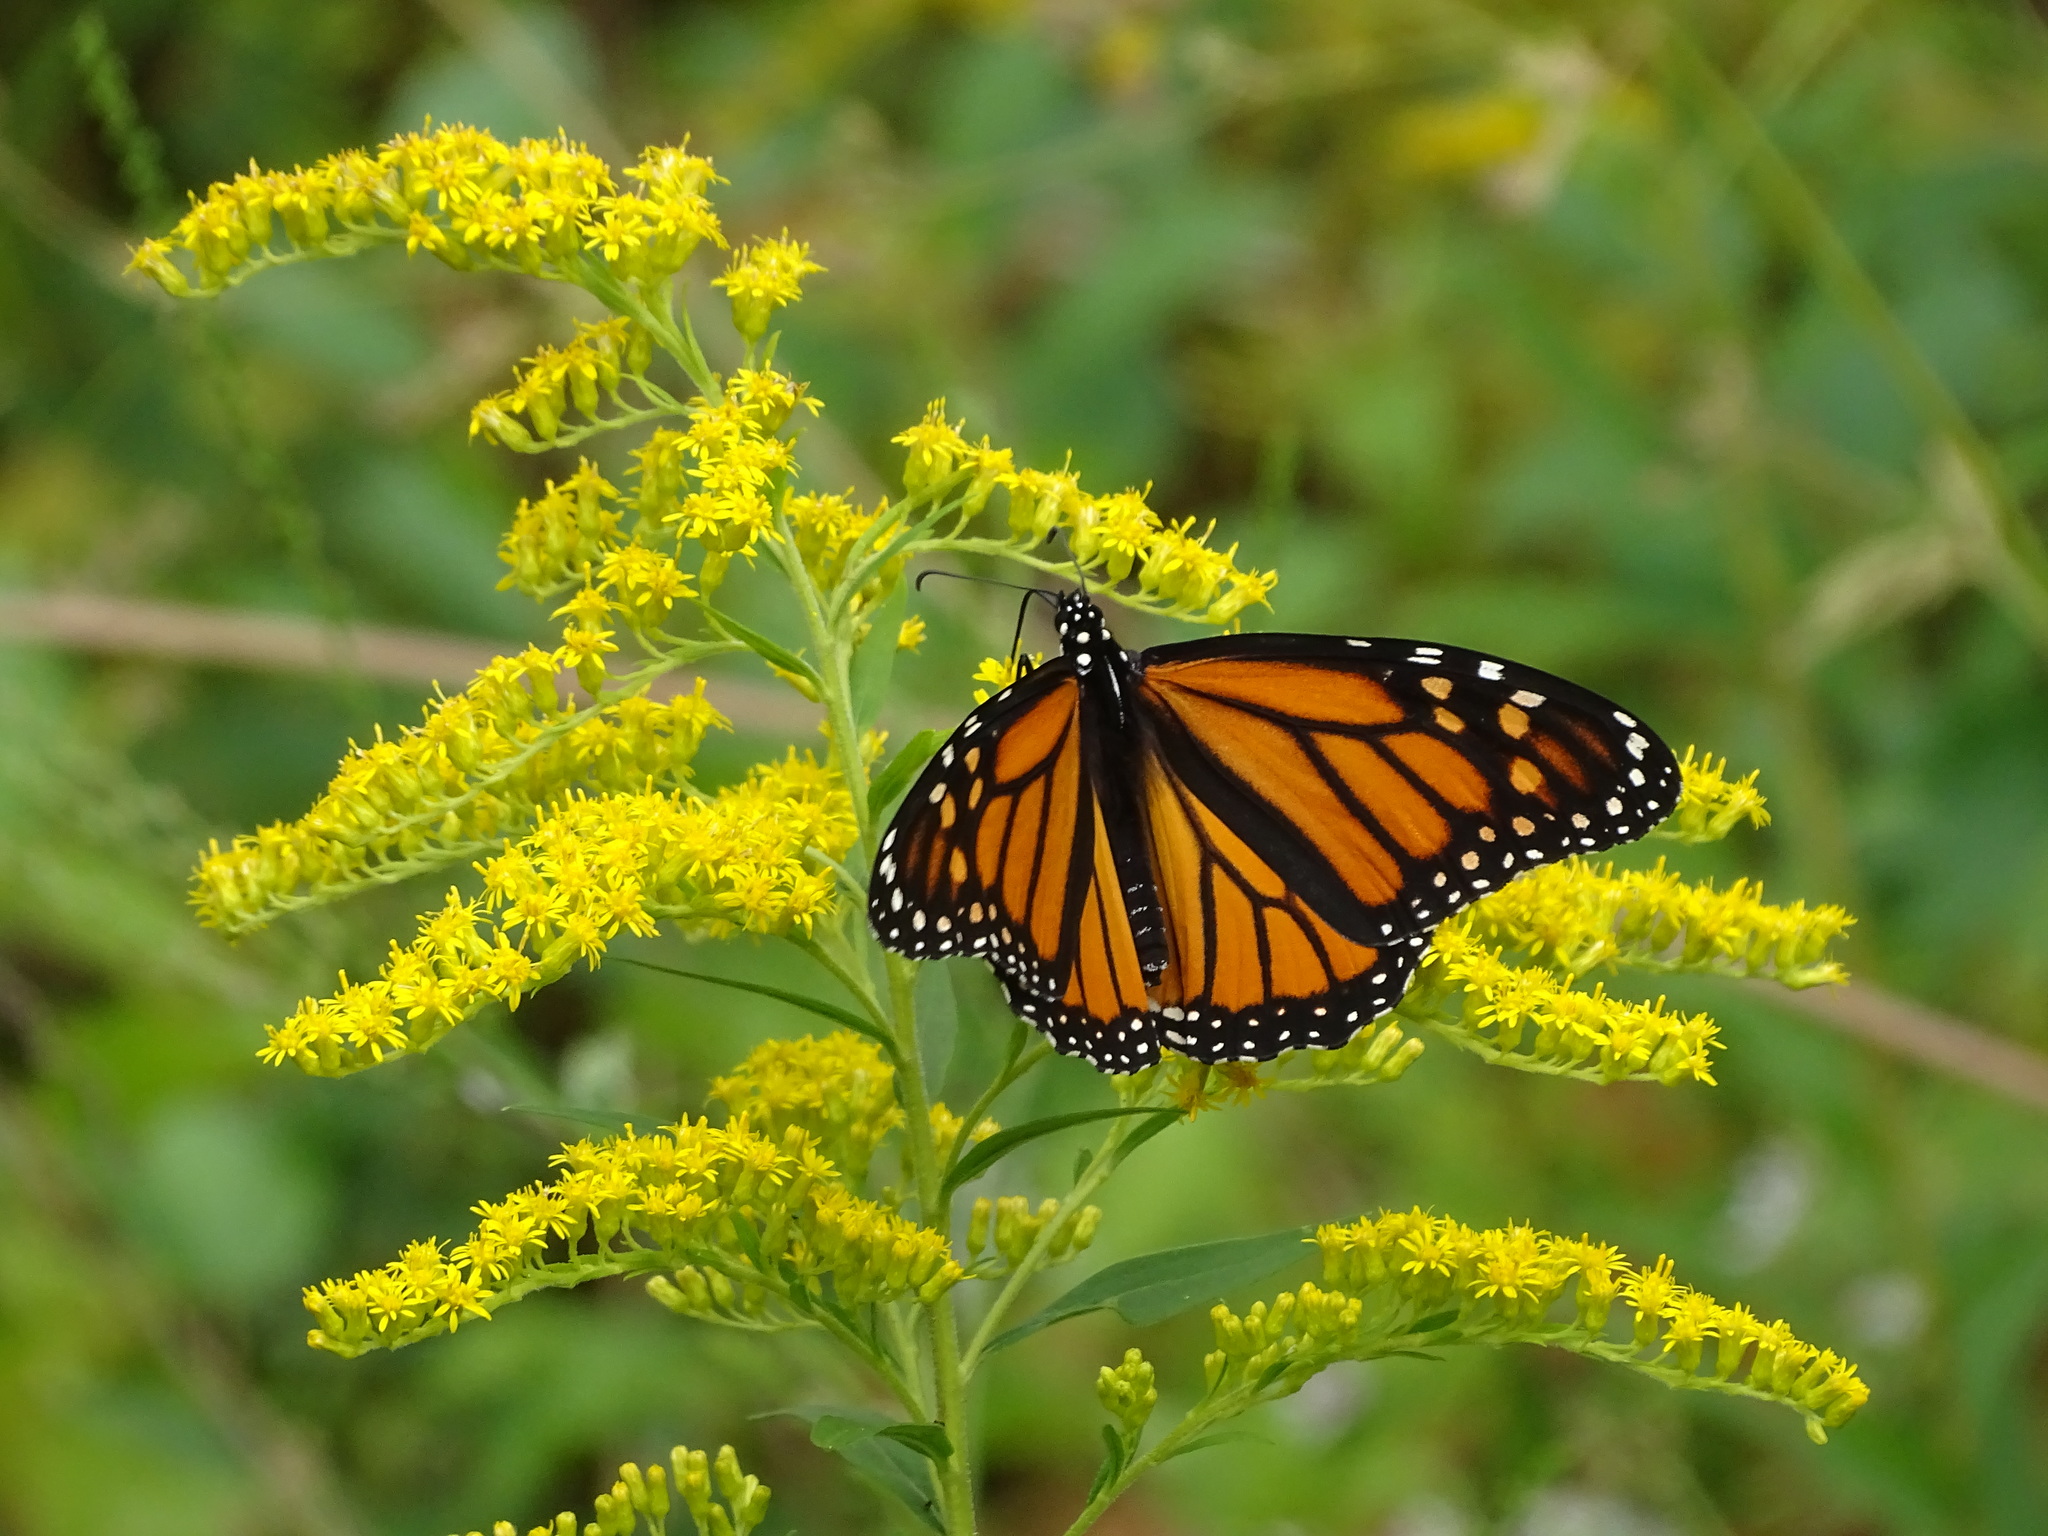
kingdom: Animalia
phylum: Arthropoda
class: Insecta
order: Lepidoptera
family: Nymphalidae
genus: Danaus
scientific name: Danaus plexippus
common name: Monarch
